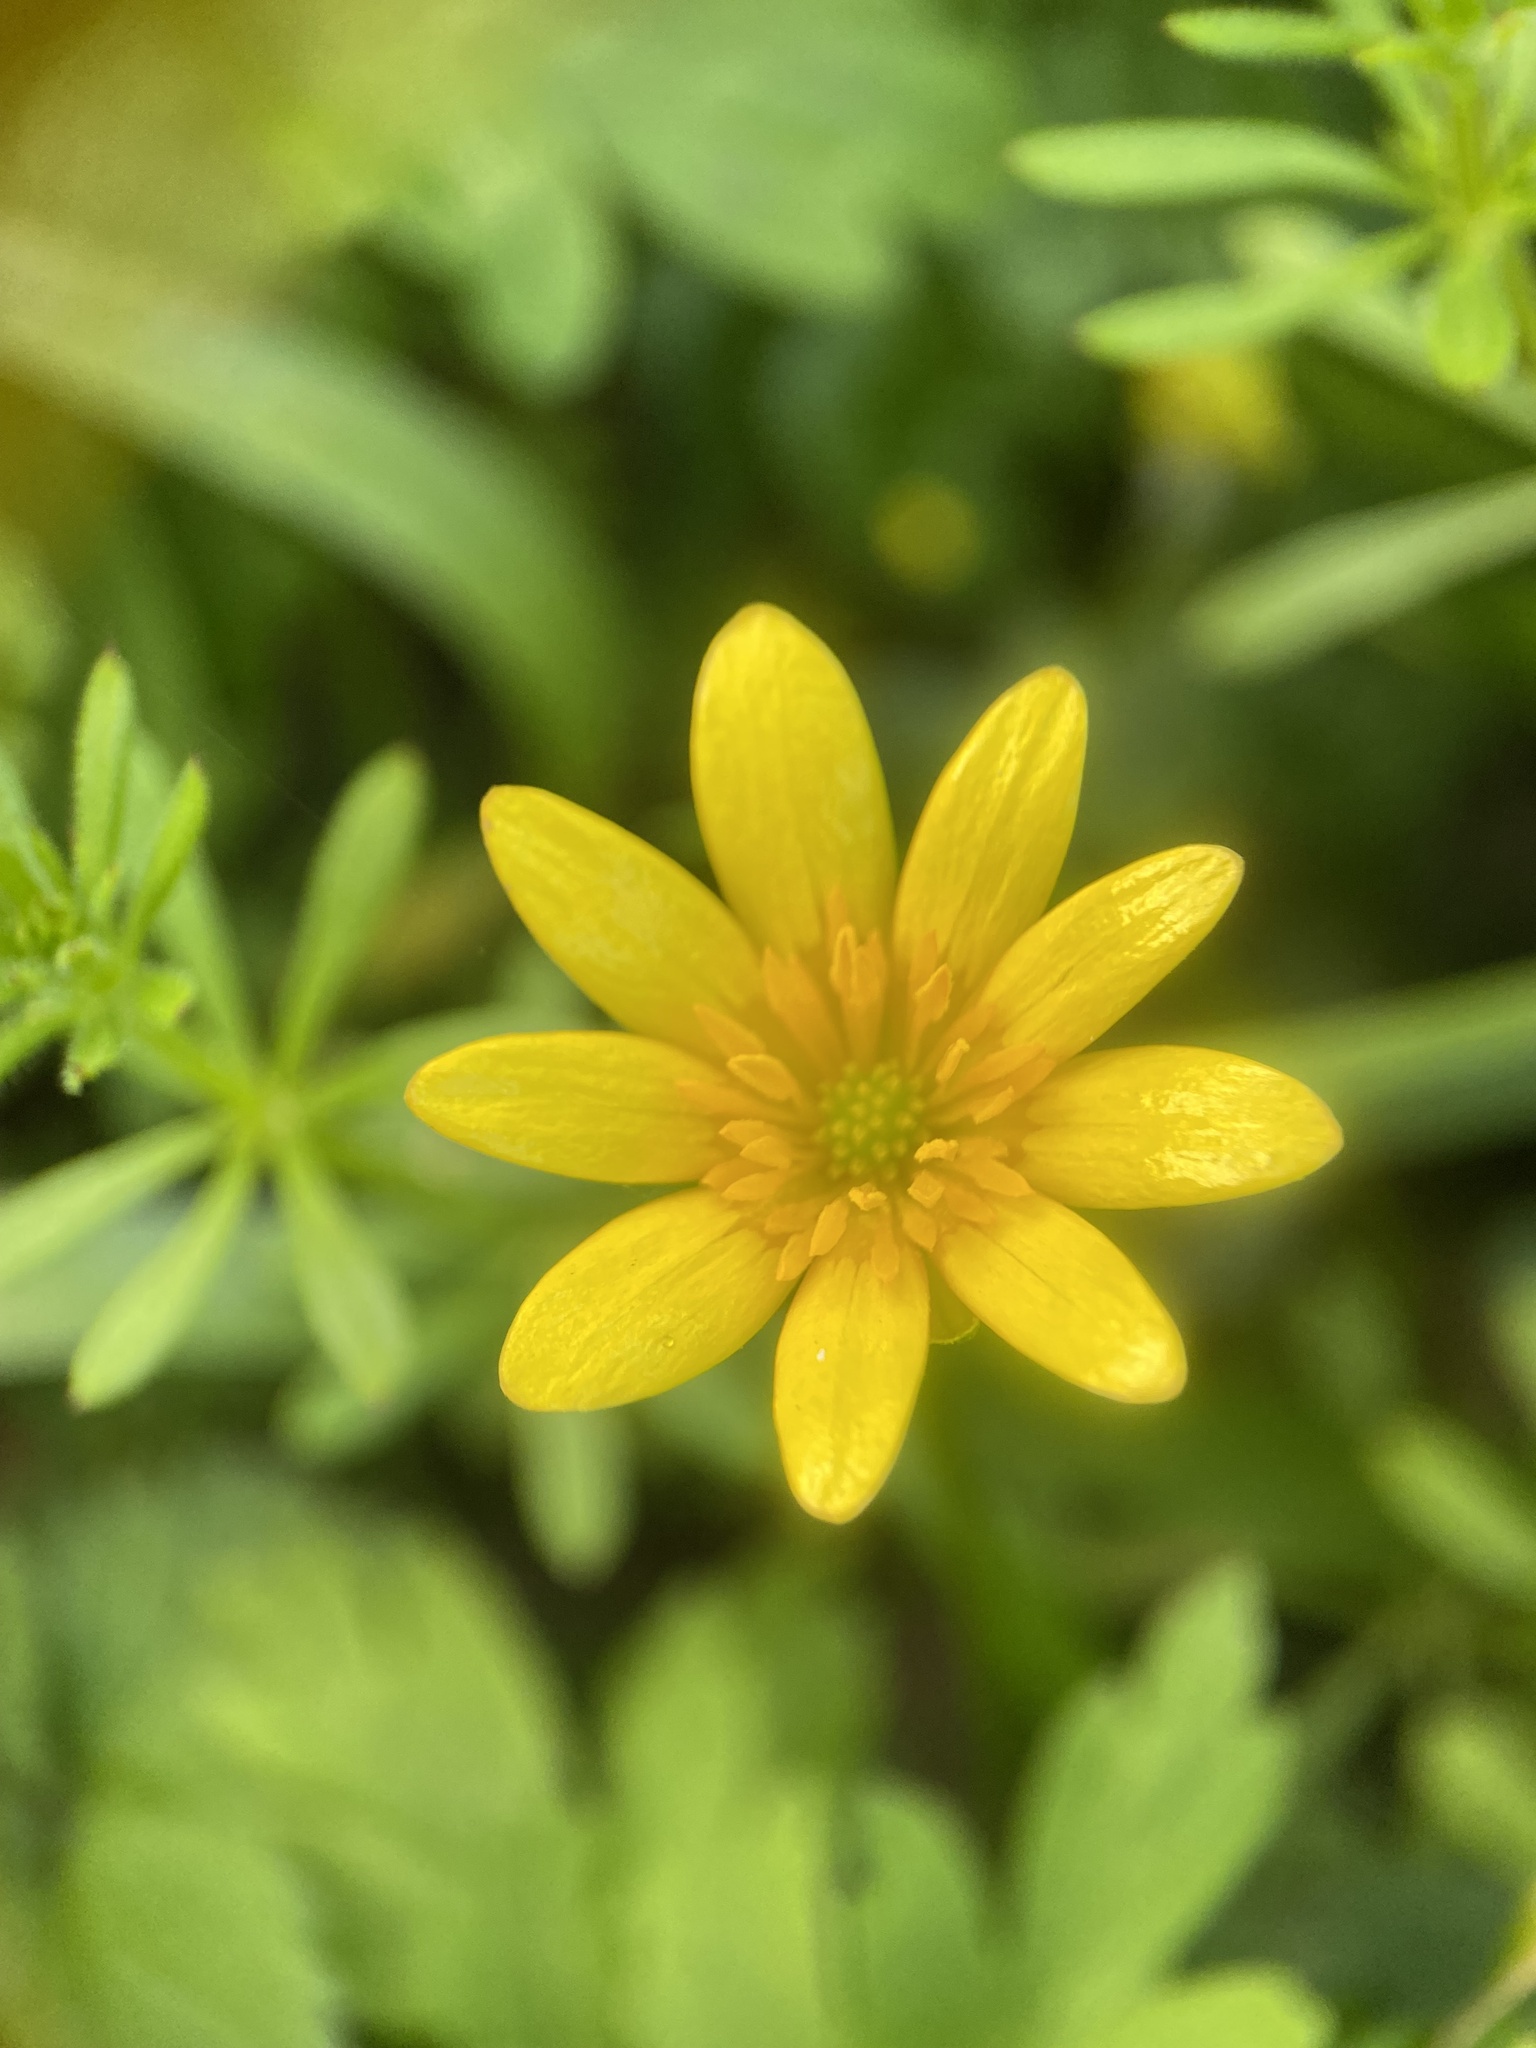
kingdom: Plantae
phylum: Tracheophyta
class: Magnoliopsida
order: Ranunculales
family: Ranunculaceae
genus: Ficaria
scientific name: Ficaria verna
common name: Lesser celandine
